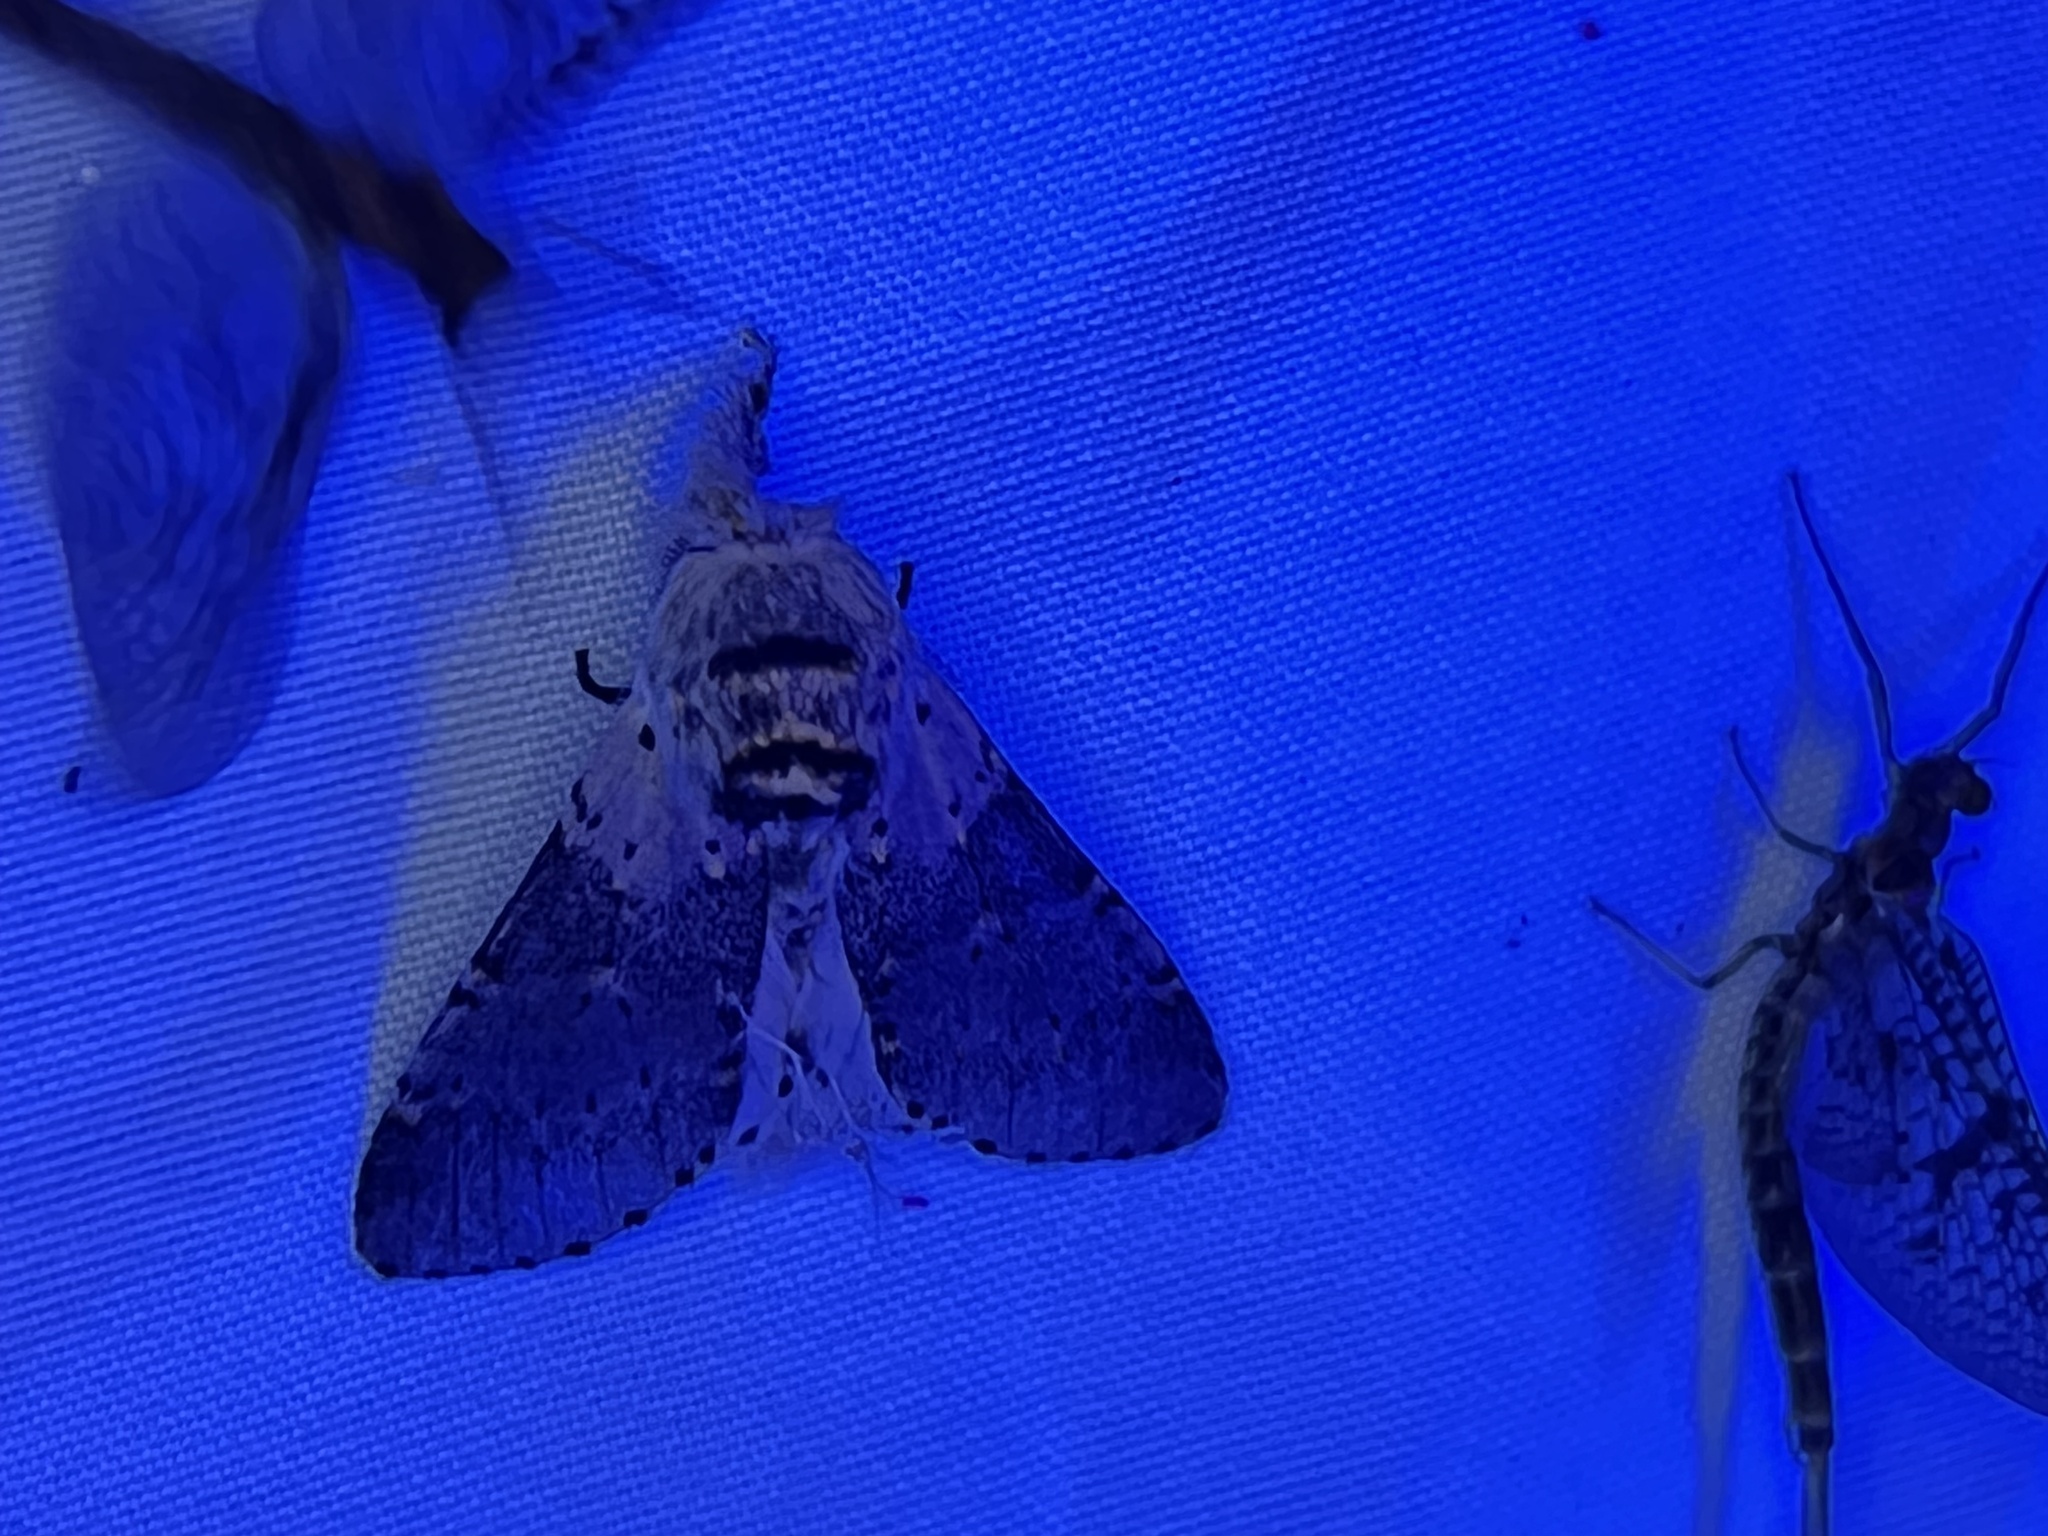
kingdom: Animalia
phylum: Arthropoda
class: Insecta
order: Lepidoptera
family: Notodontidae
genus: Furcula
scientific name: Furcula cinerea
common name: Gray furcula
